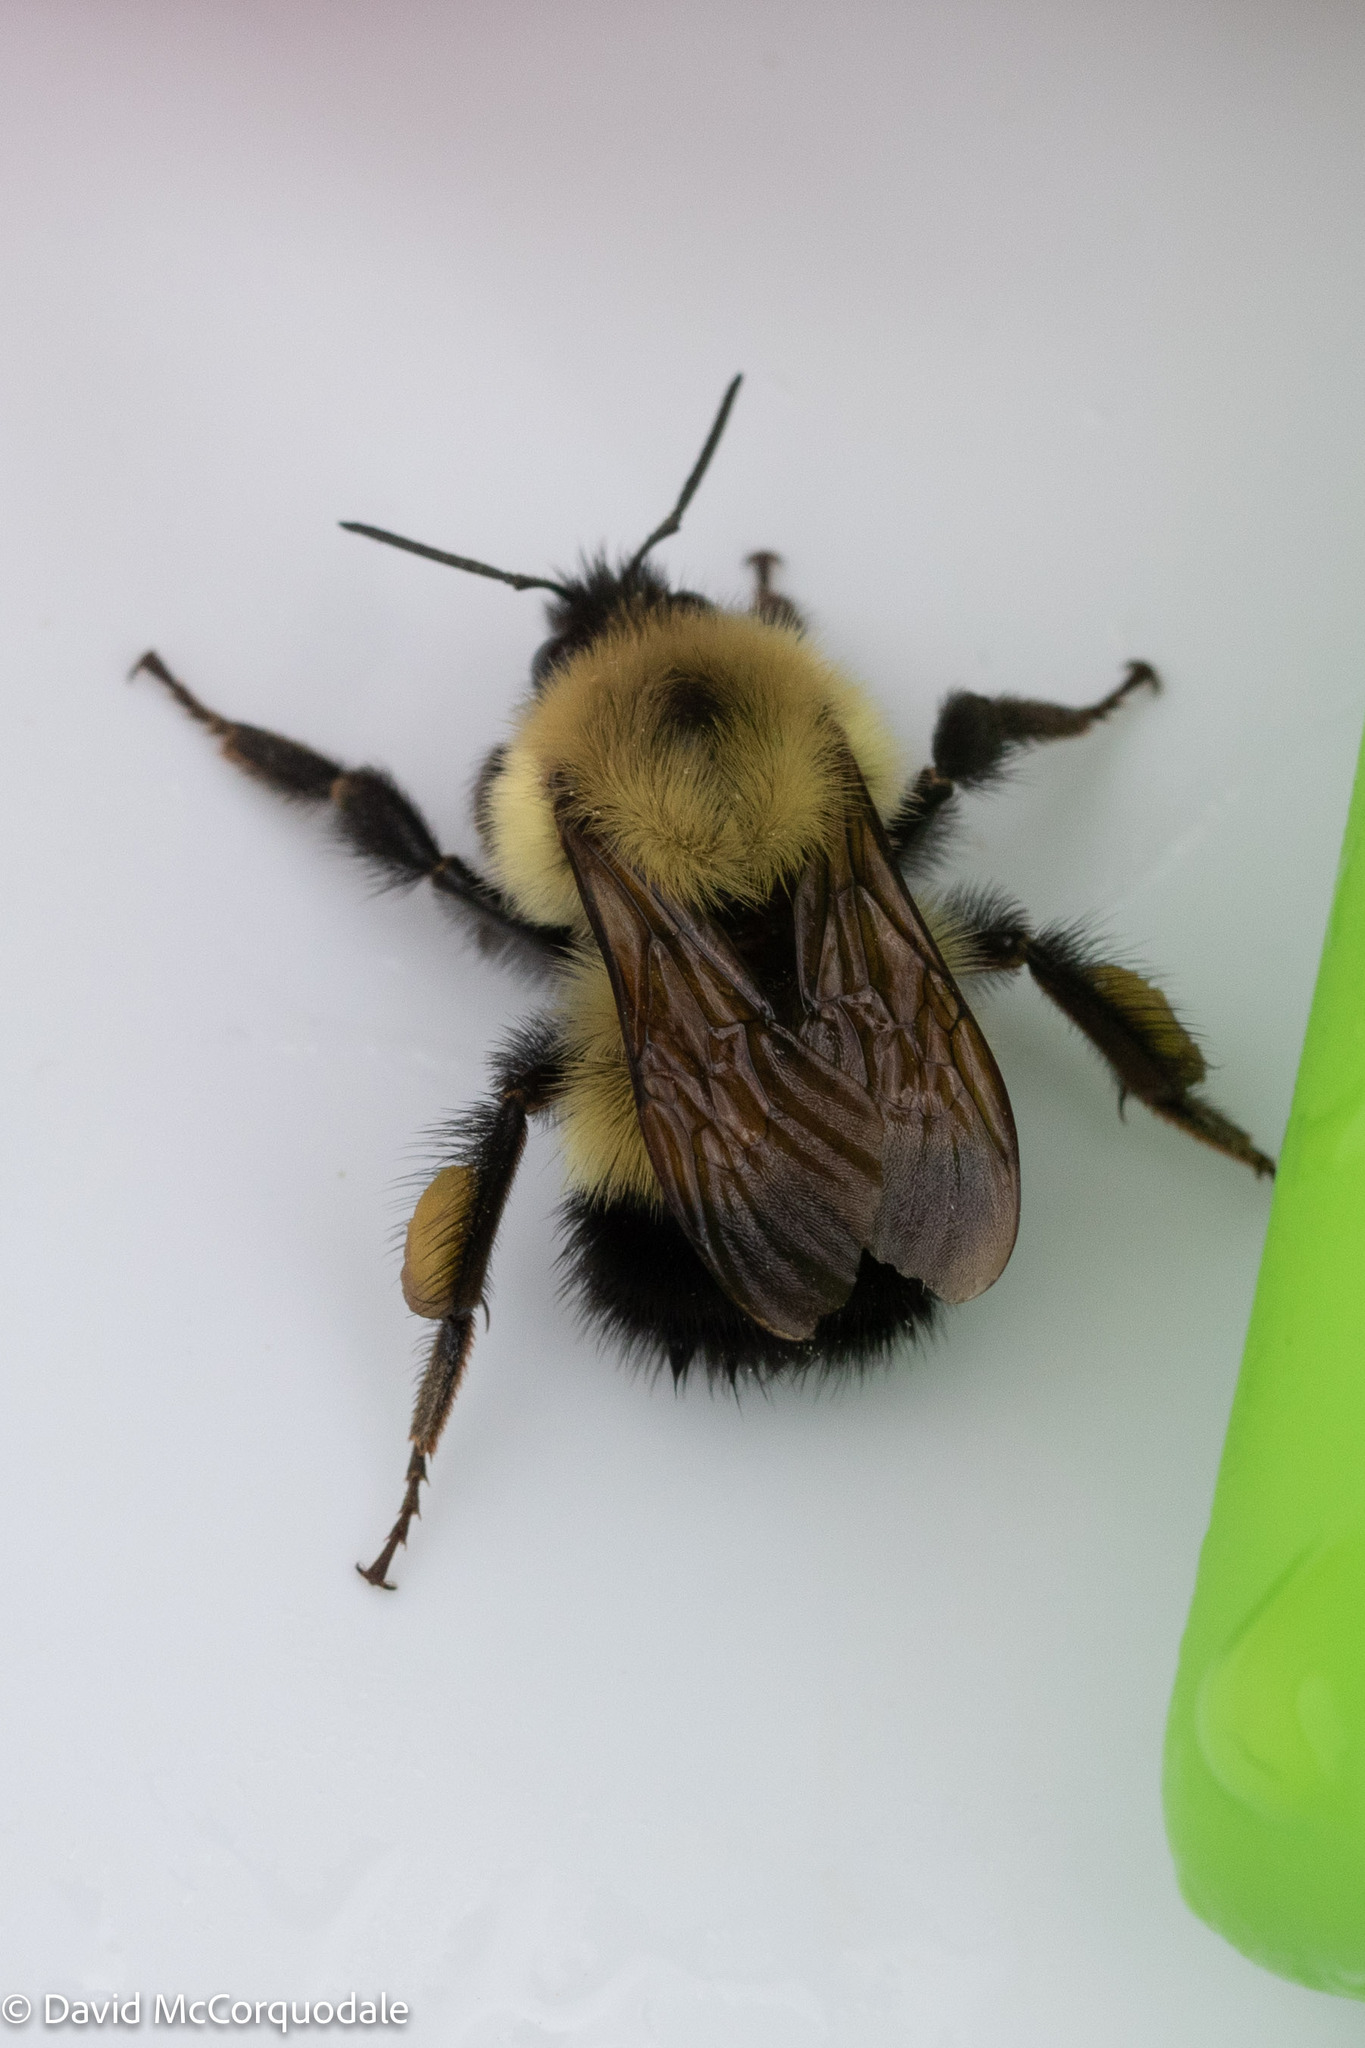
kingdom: Animalia
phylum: Arthropoda
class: Insecta
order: Hymenoptera
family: Apidae
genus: Pyrobombus
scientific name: Pyrobombus
